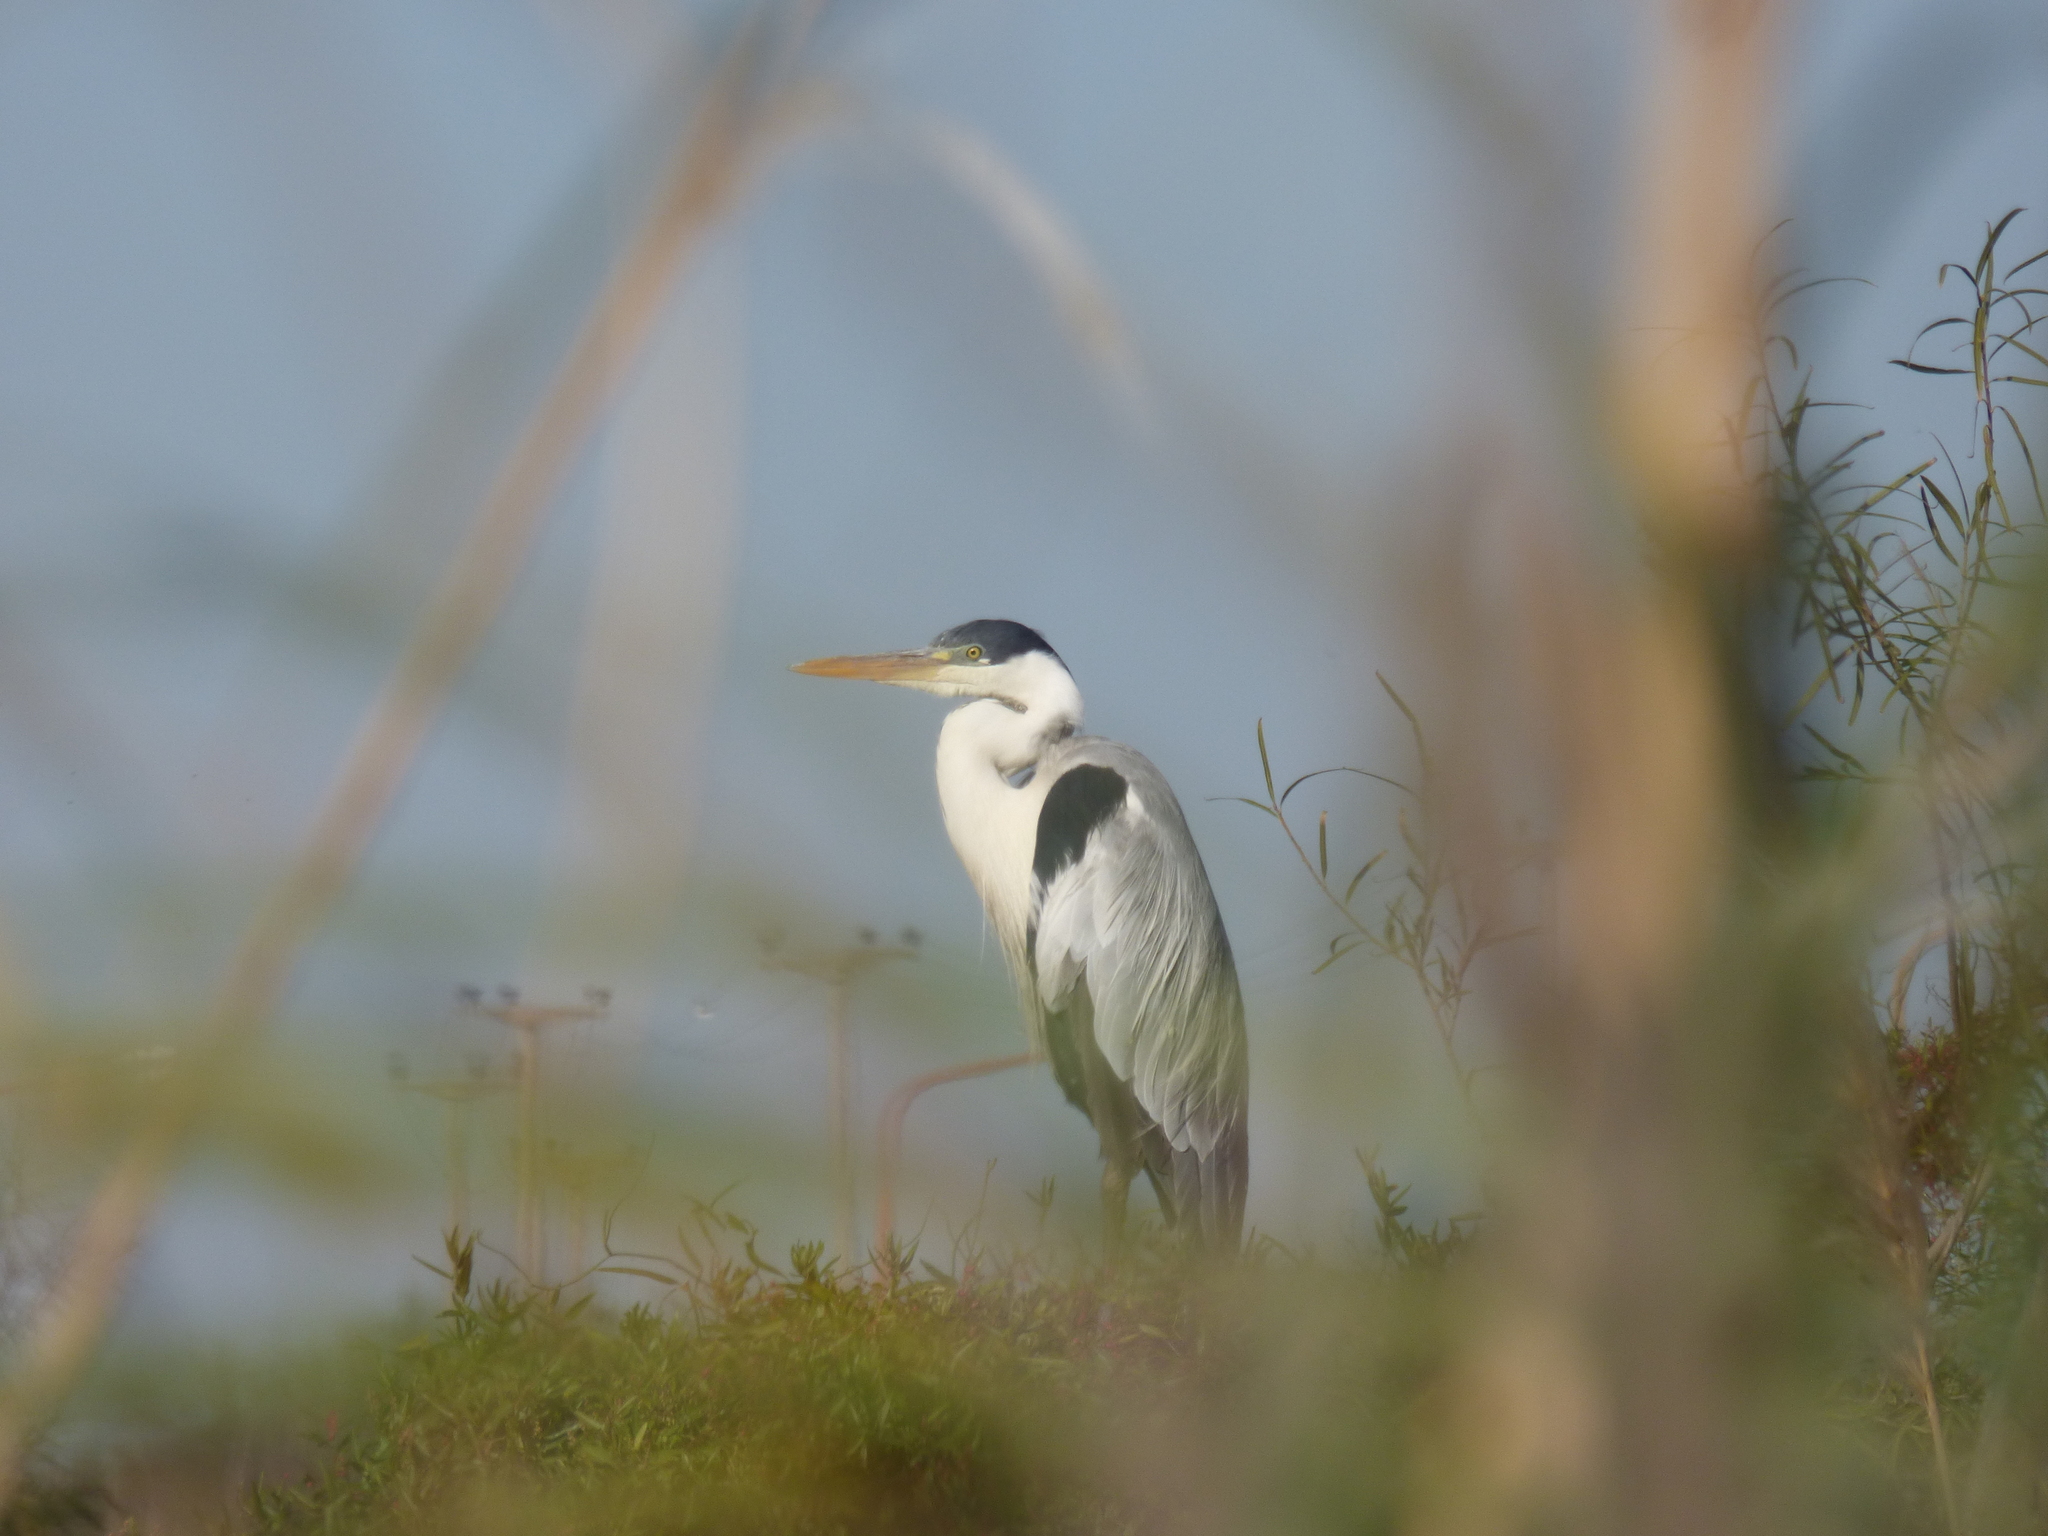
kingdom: Animalia
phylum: Chordata
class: Aves
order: Pelecaniformes
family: Ardeidae
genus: Ardea
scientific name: Ardea cocoi
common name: Cocoi heron
